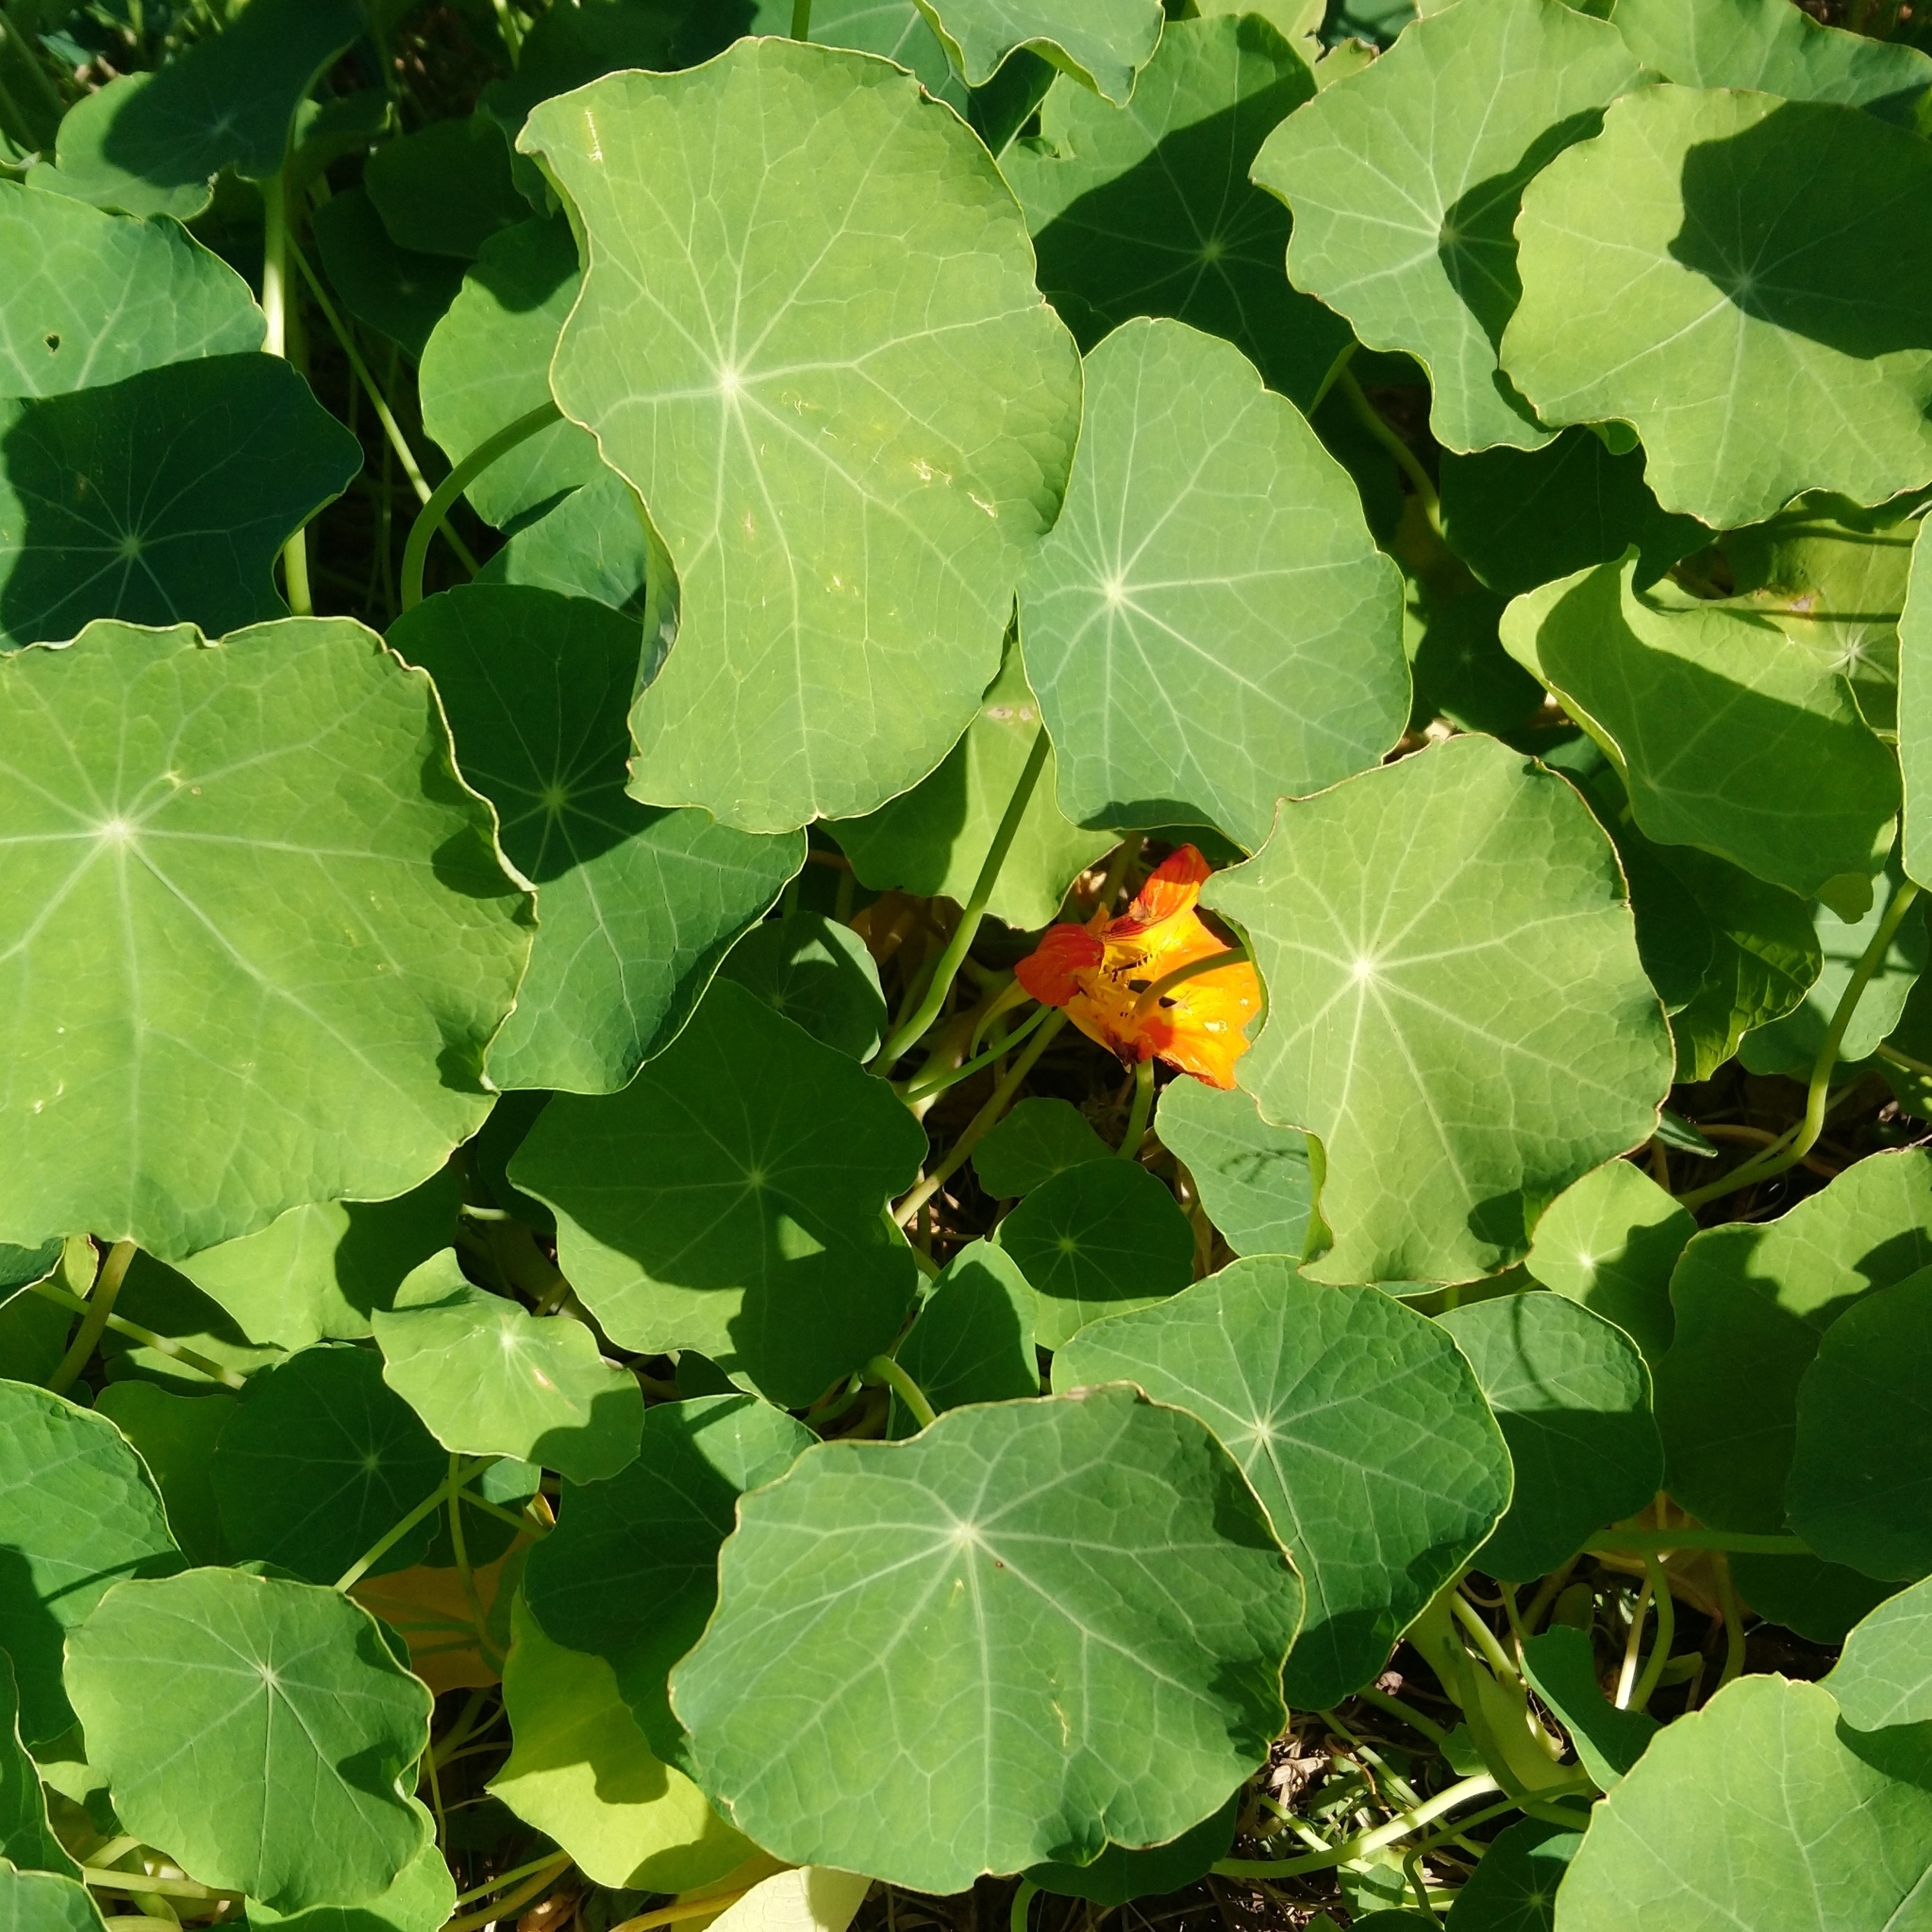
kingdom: Plantae
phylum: Tracheophyta
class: Magnoliopsida
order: Brassicales
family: Tropaeolaceae
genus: Tropaeolum
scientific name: Tropaeolum majus
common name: Nasturtium
